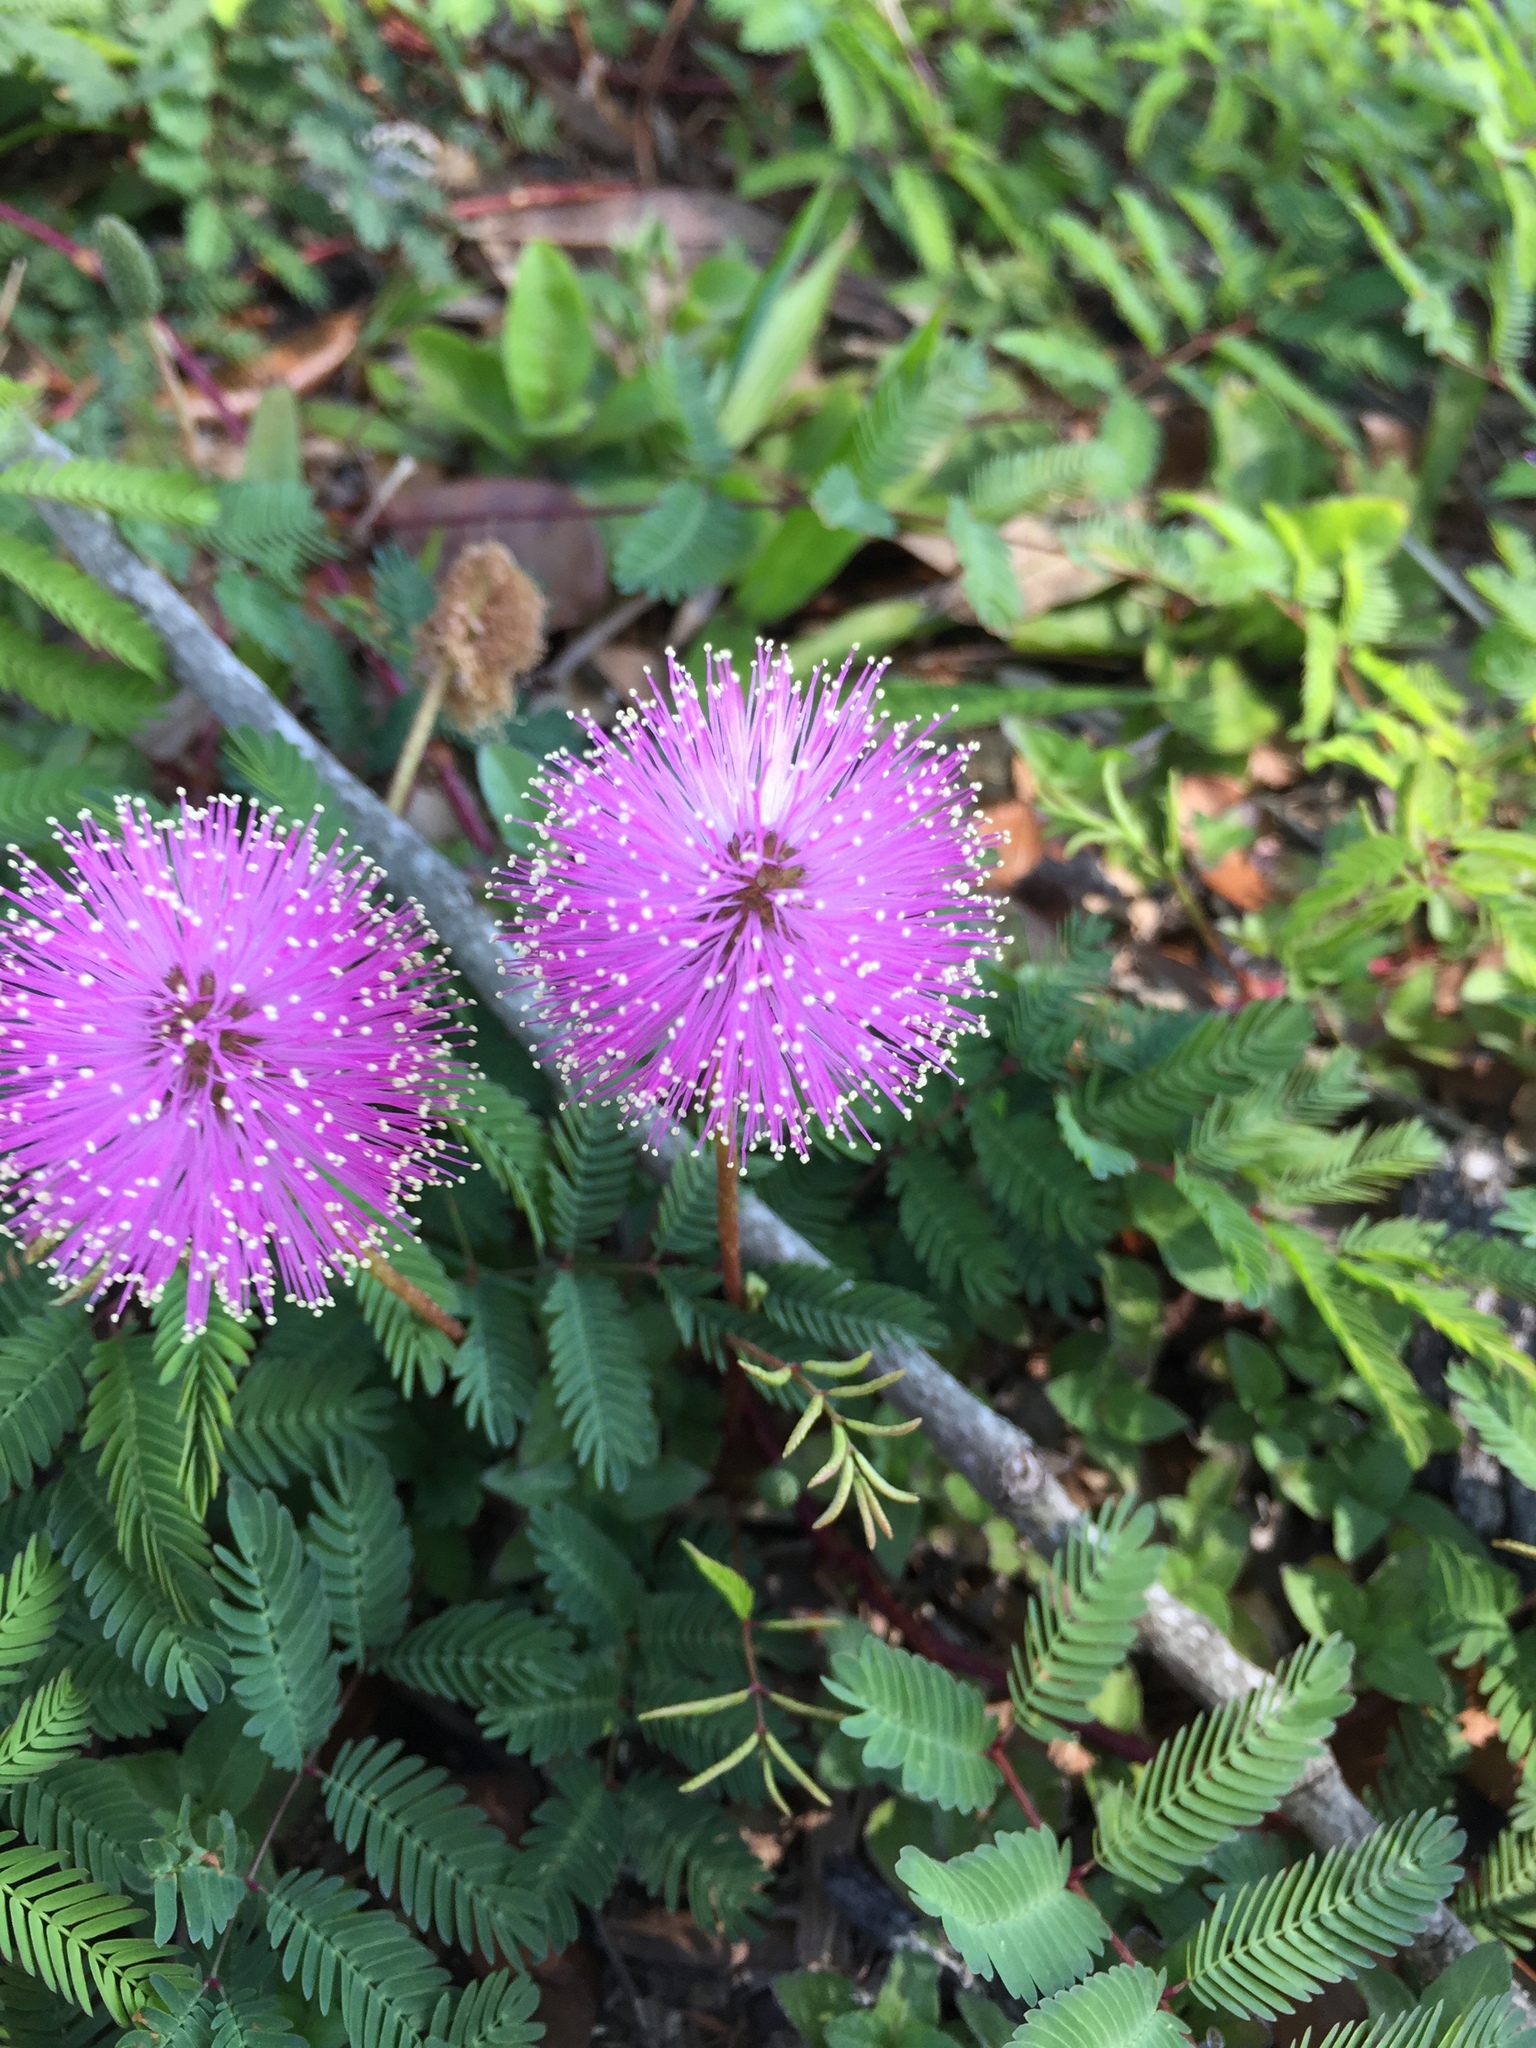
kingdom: Plantae
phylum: Tracheophyta
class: Magnoliopsida
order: Fabales
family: Fabaceae
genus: Mimosa
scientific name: Mimosa strigillosa
